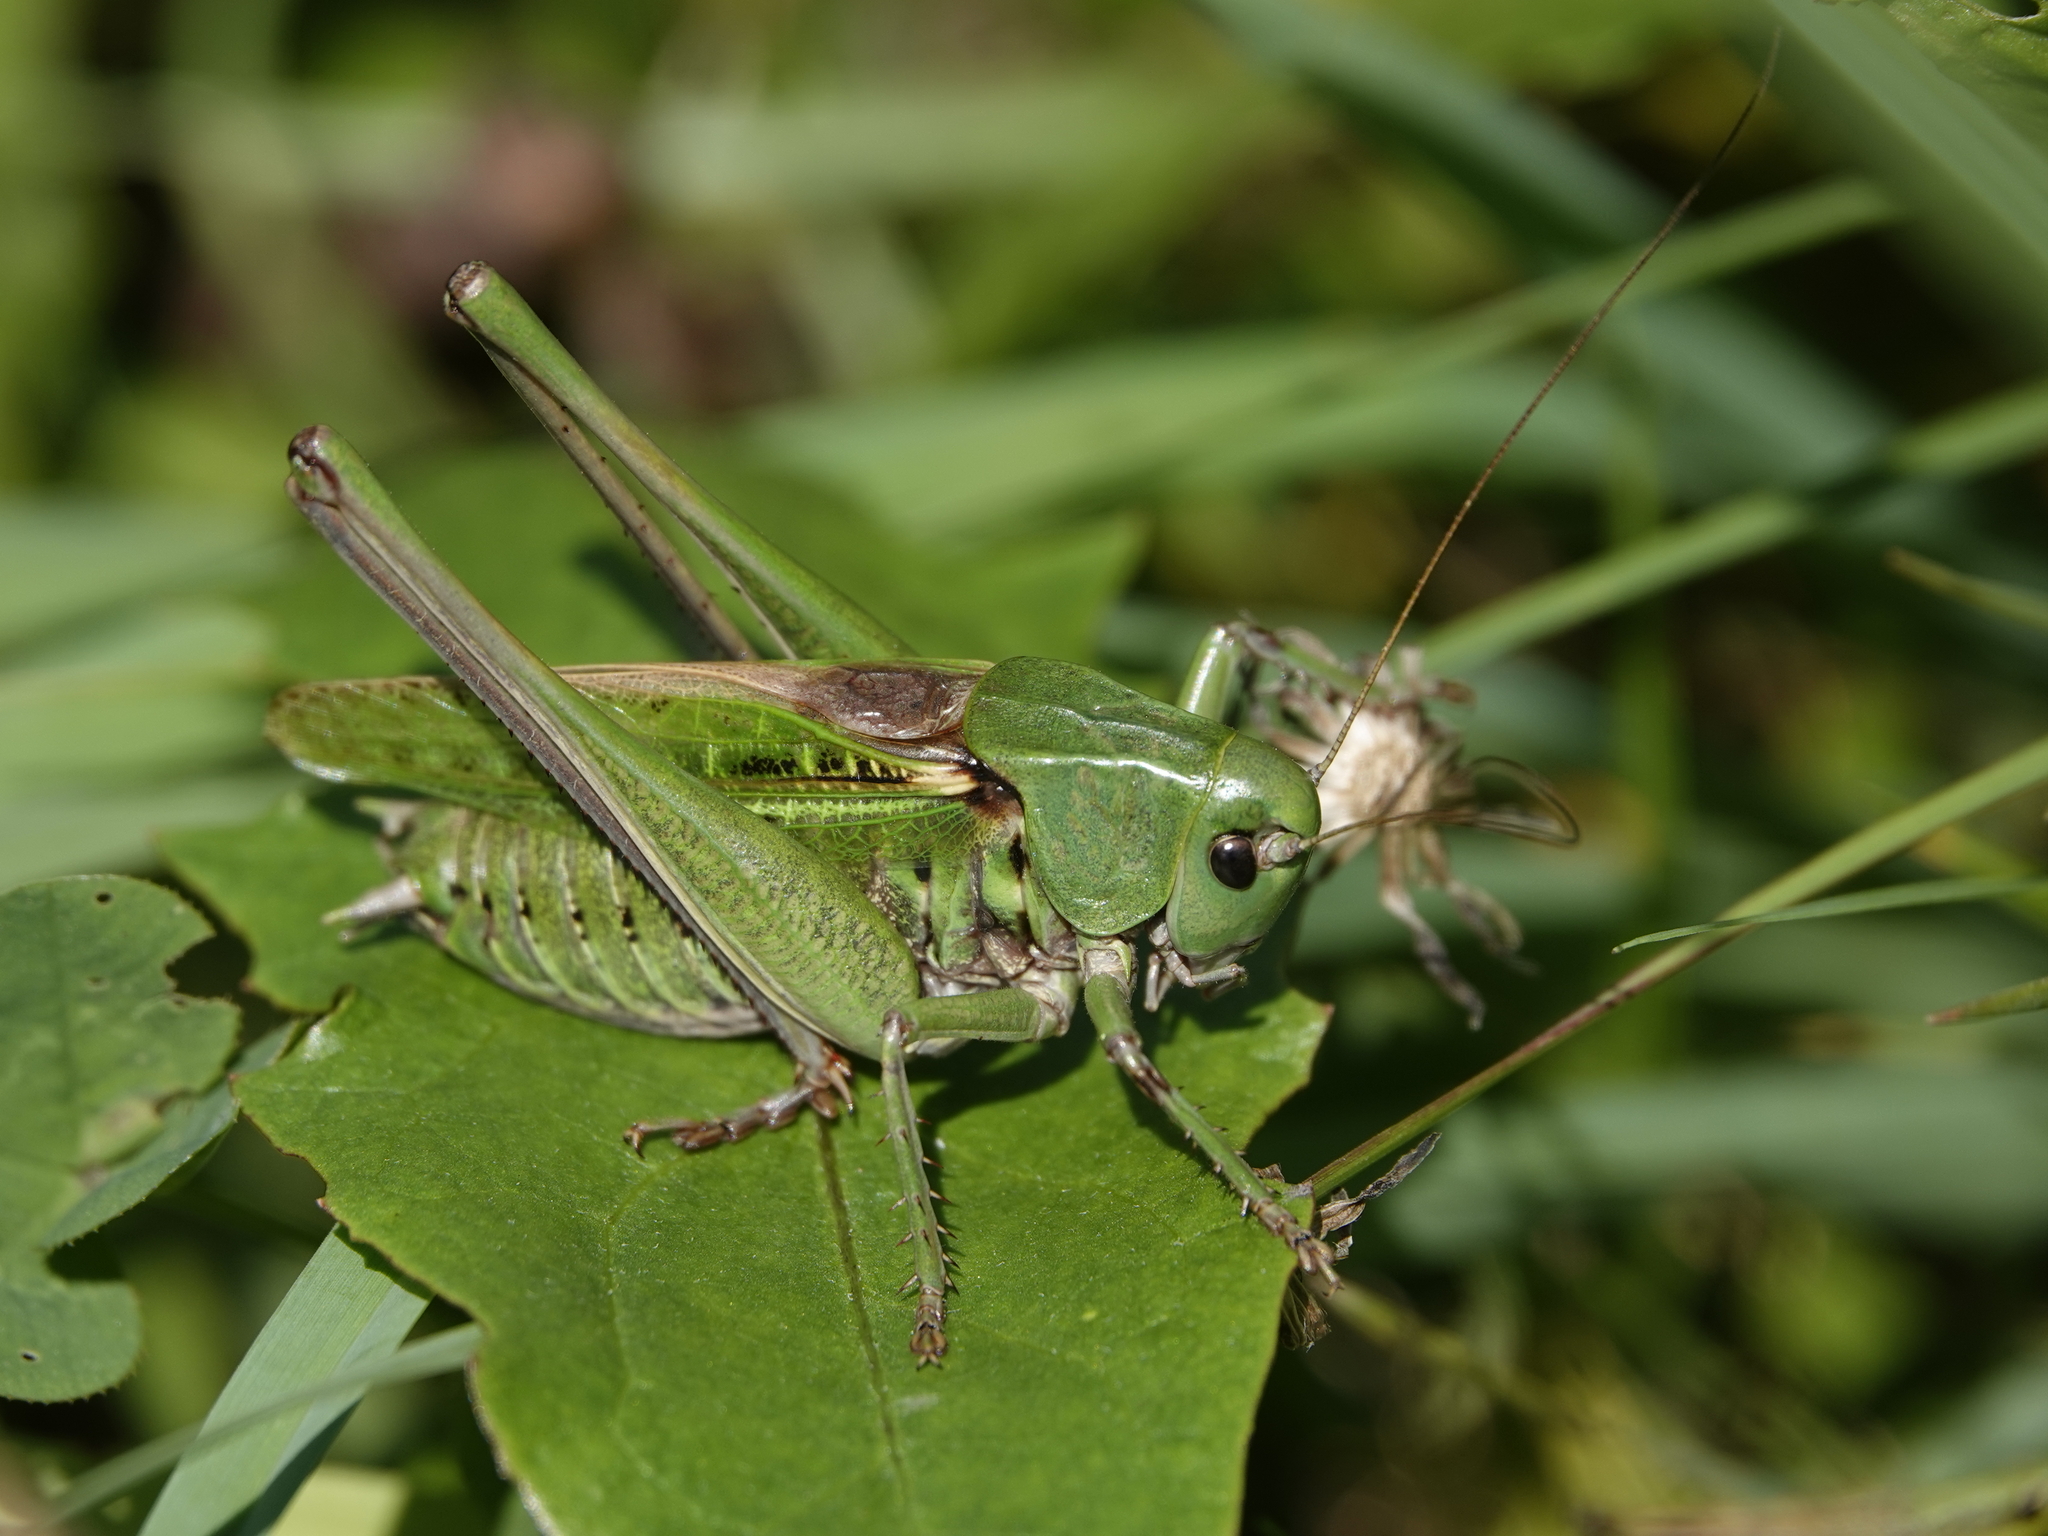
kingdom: Animalia
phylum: Arthropoda
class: Insecta
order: Orthoptera
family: Tettigoniidae
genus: Decticus
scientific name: Decticus verrucivorus
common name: Wart-biter
